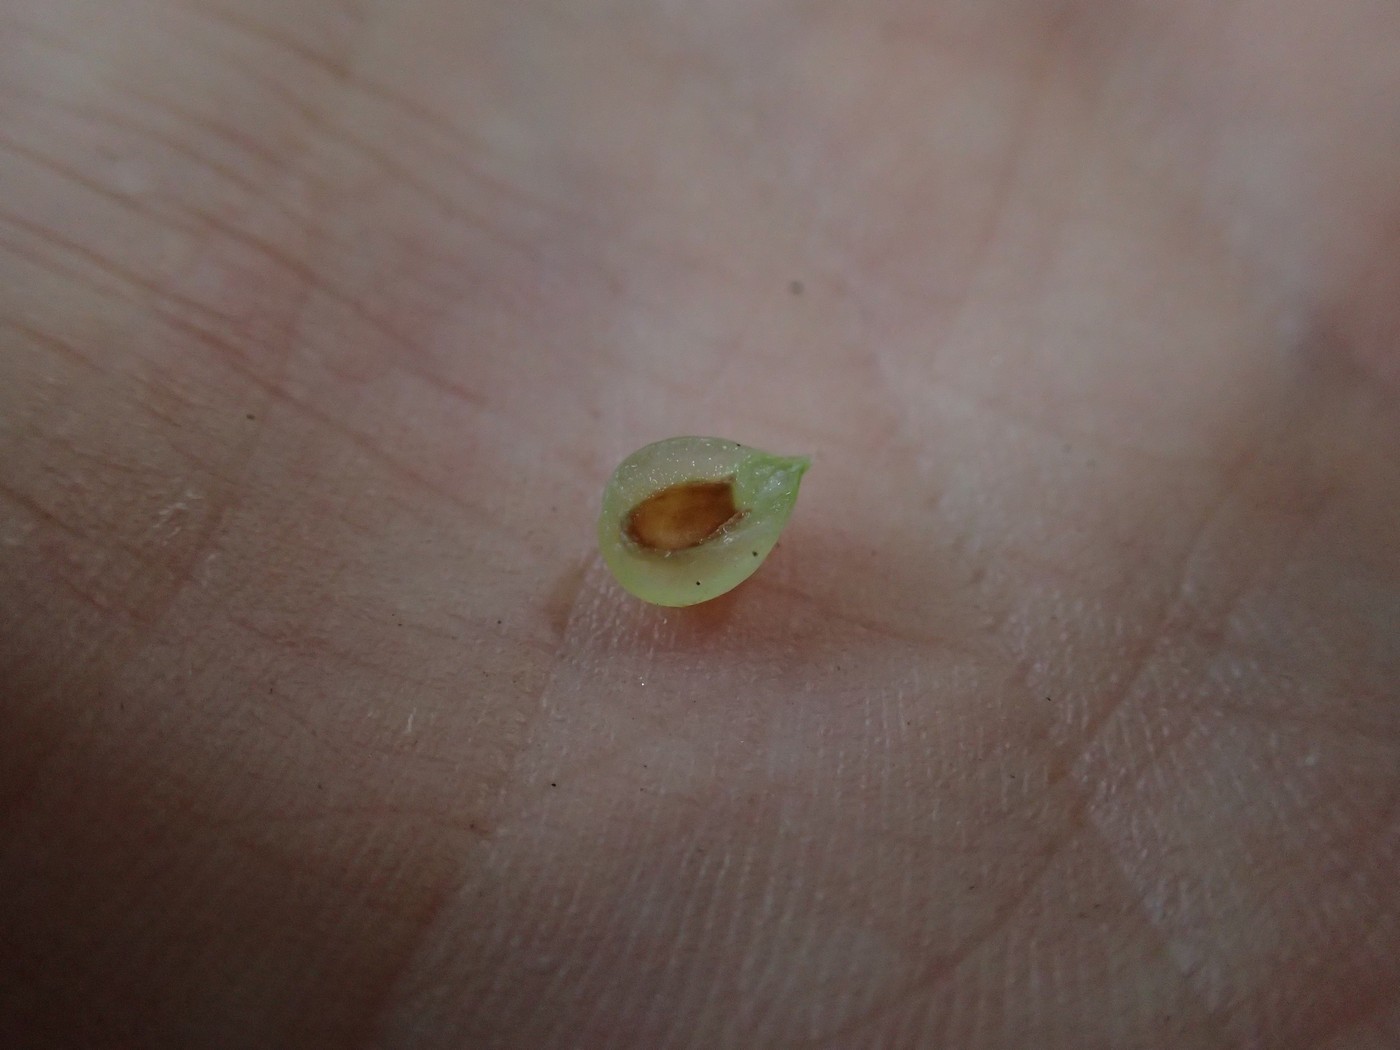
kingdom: Animalia
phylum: Arthropoda
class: Insecta
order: Diptera
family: Cecidomyiidae
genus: Dasineura
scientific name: Dasineura investita
